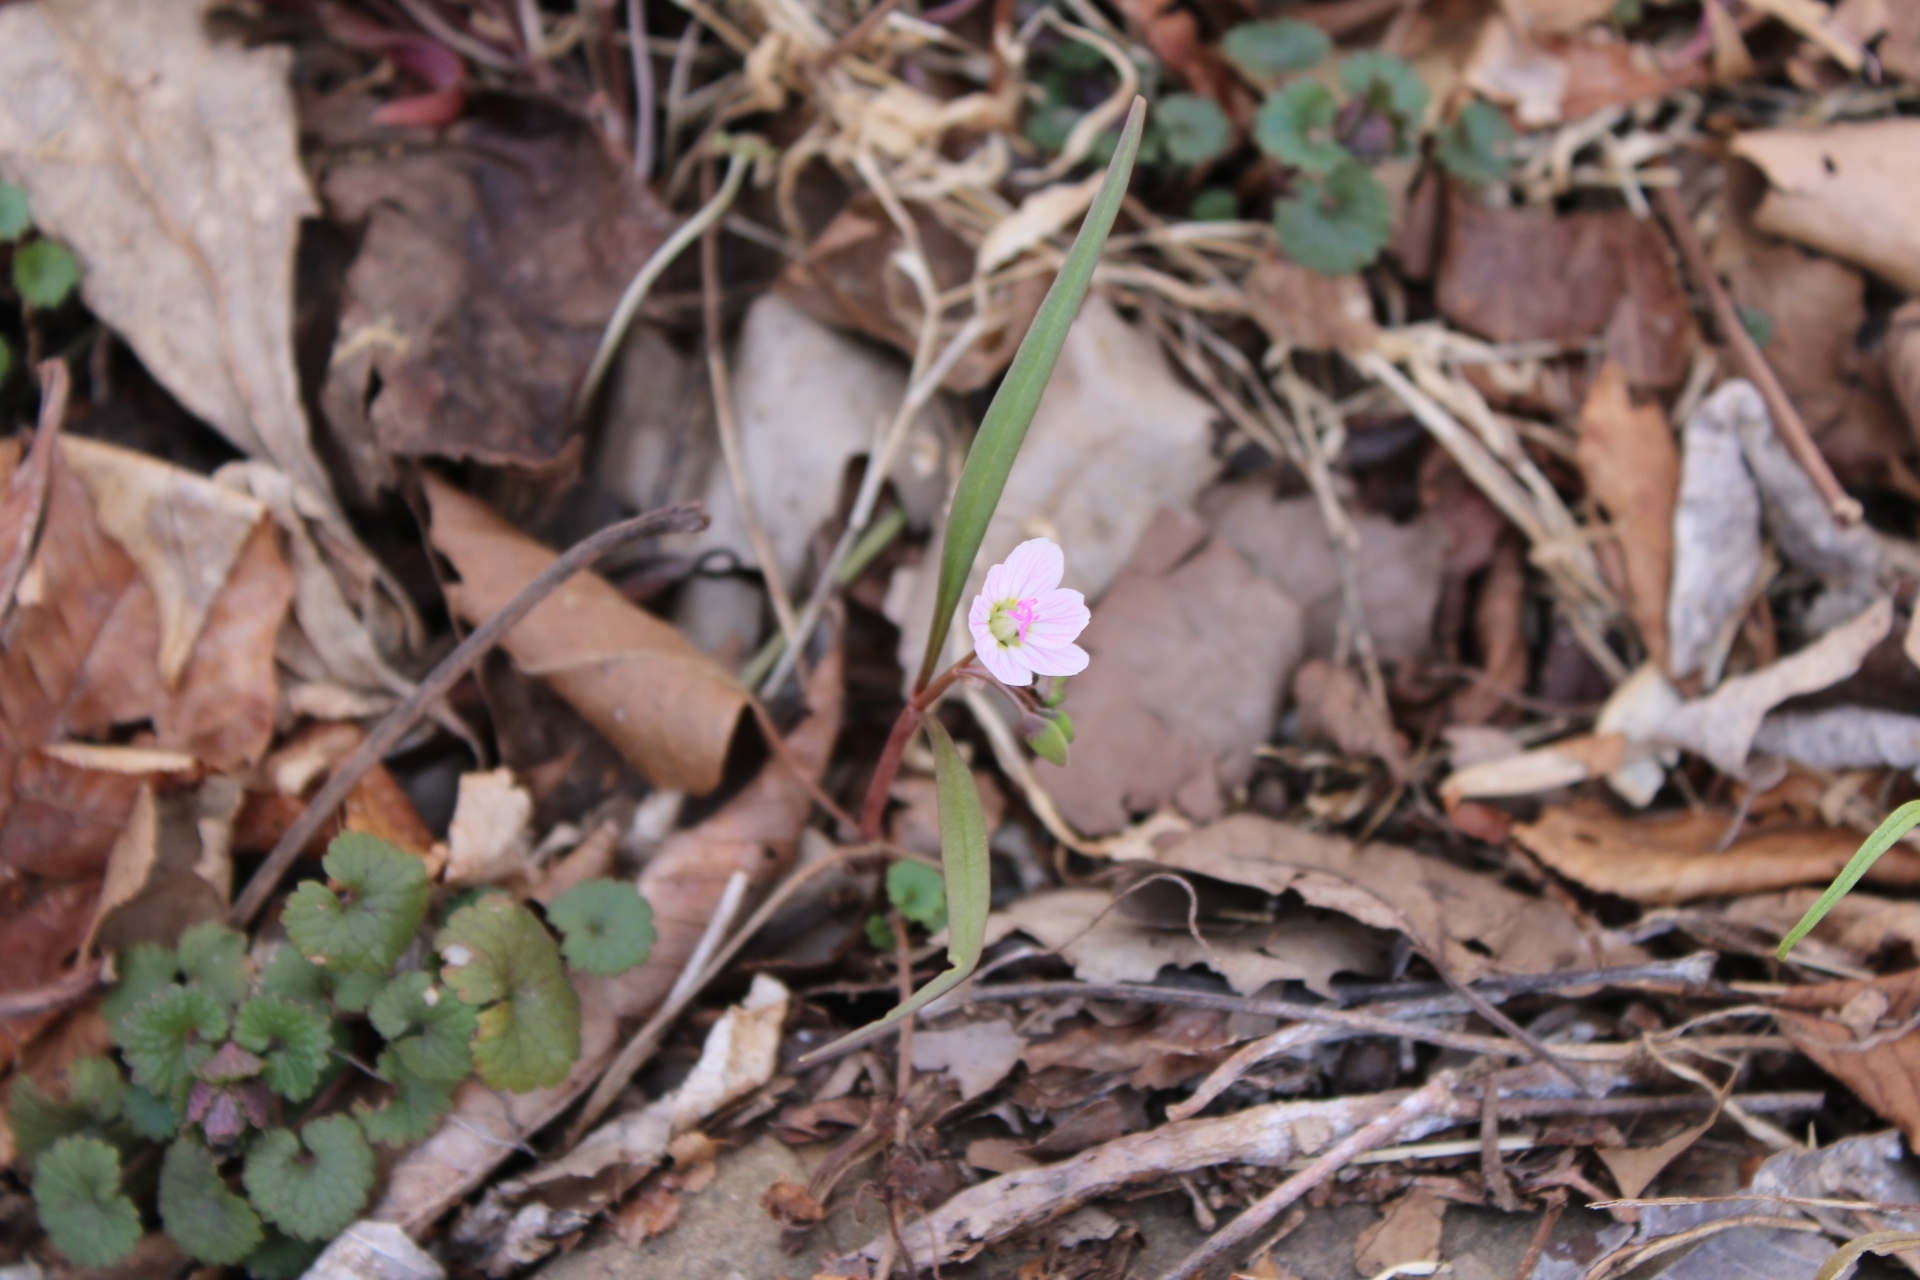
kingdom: Plantae
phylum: Tracheophyta
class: Magnoliopsida
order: Caryophyllales
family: Montiaceae
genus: Claytonia
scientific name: Claytonia virginica
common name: Virginia springbeauty
